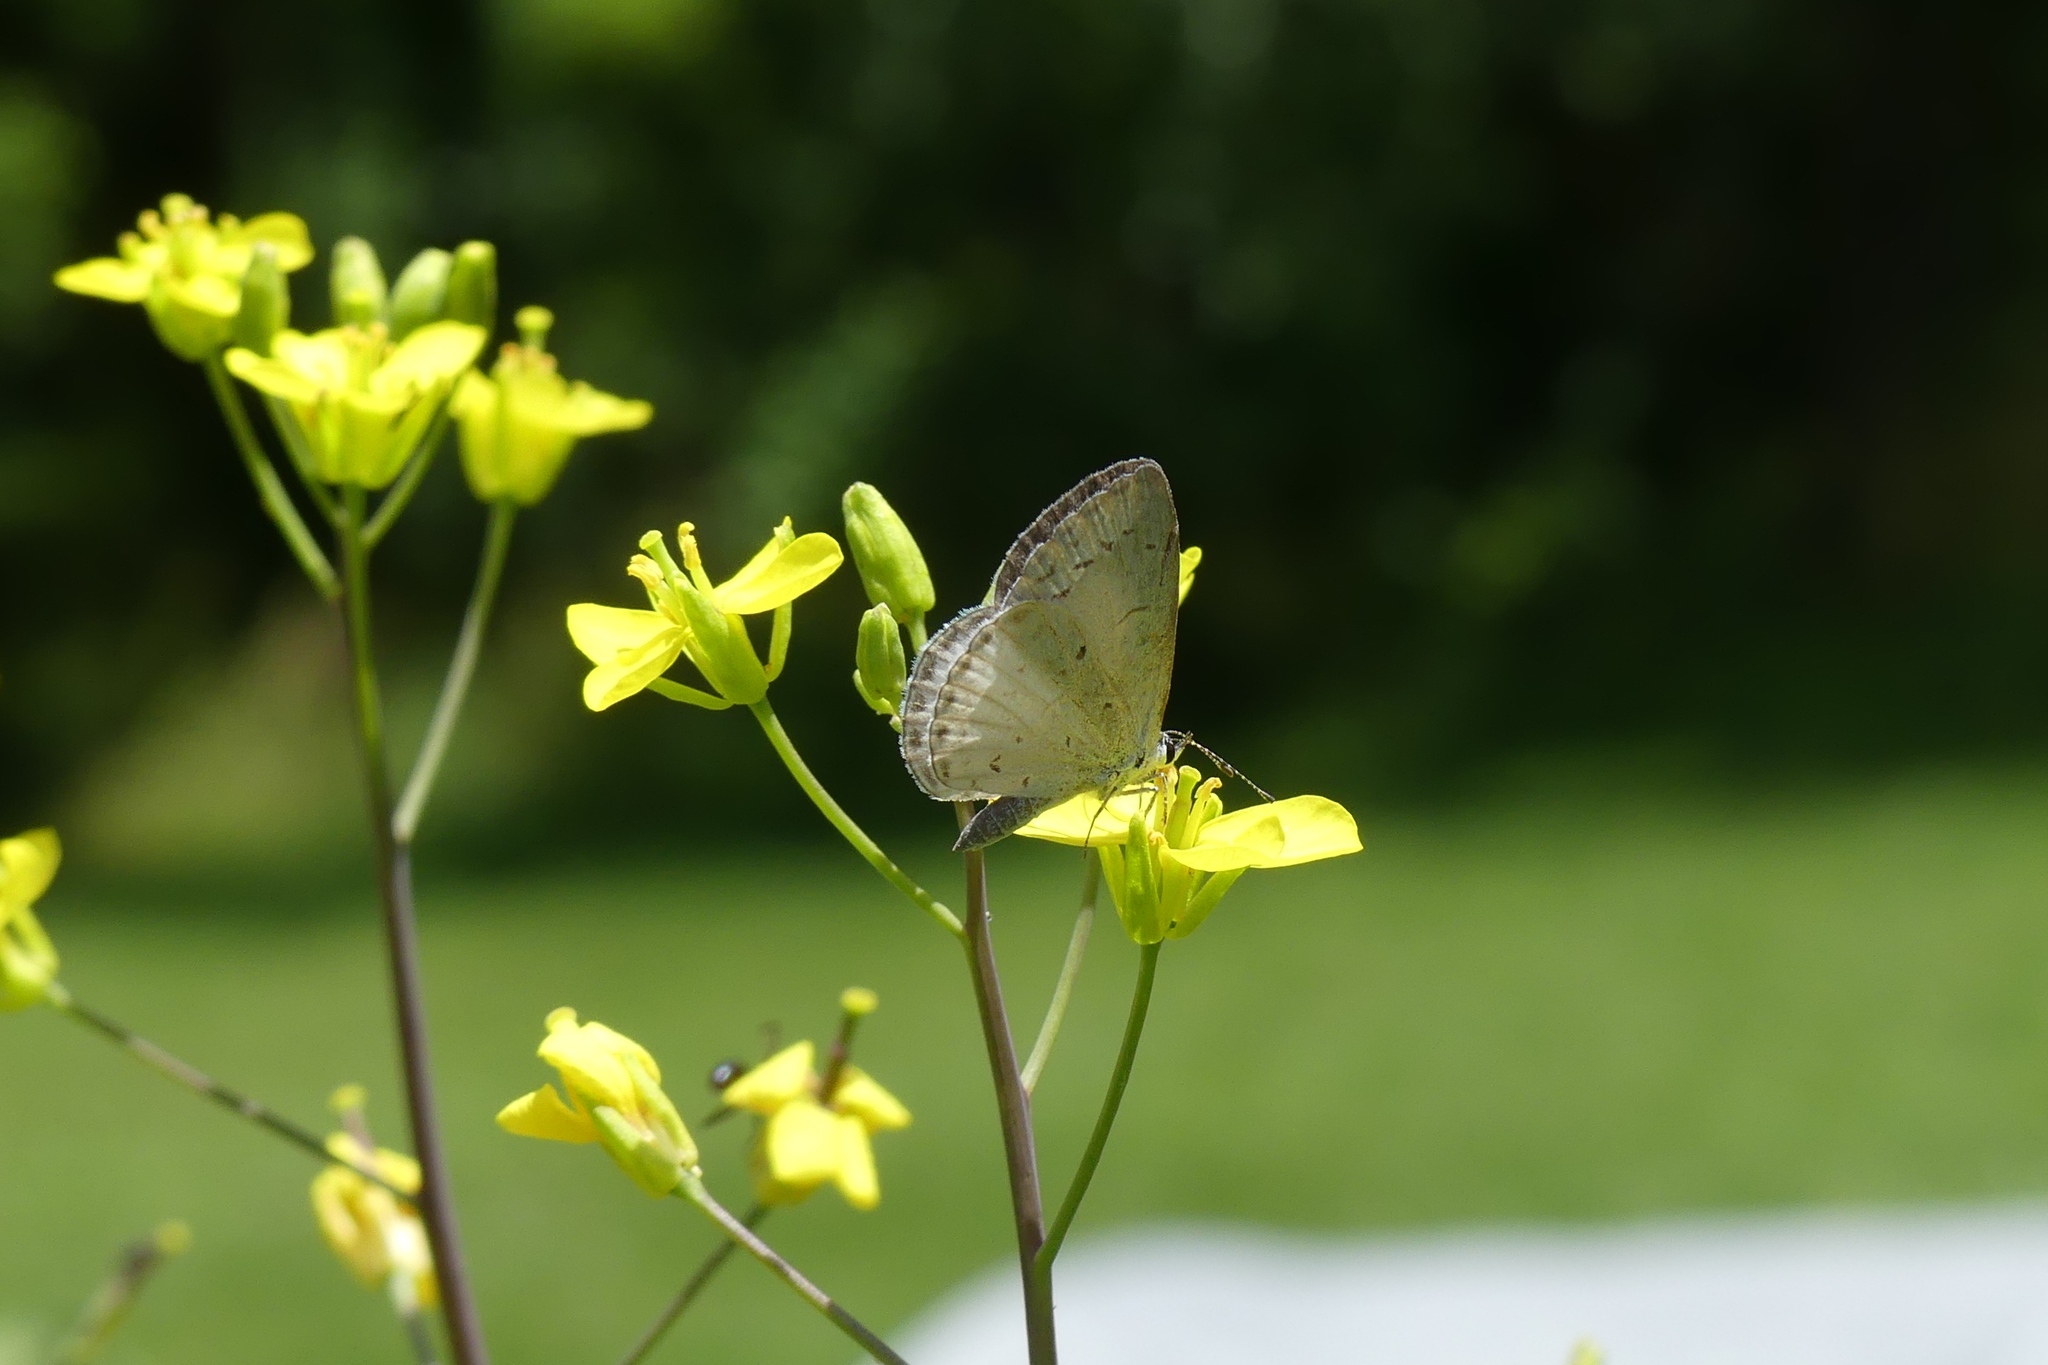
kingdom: Animalia
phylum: Arthropoda
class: Insecta
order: Lepidoptera
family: Lycaenidae
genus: Celastrina
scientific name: Celastrina
